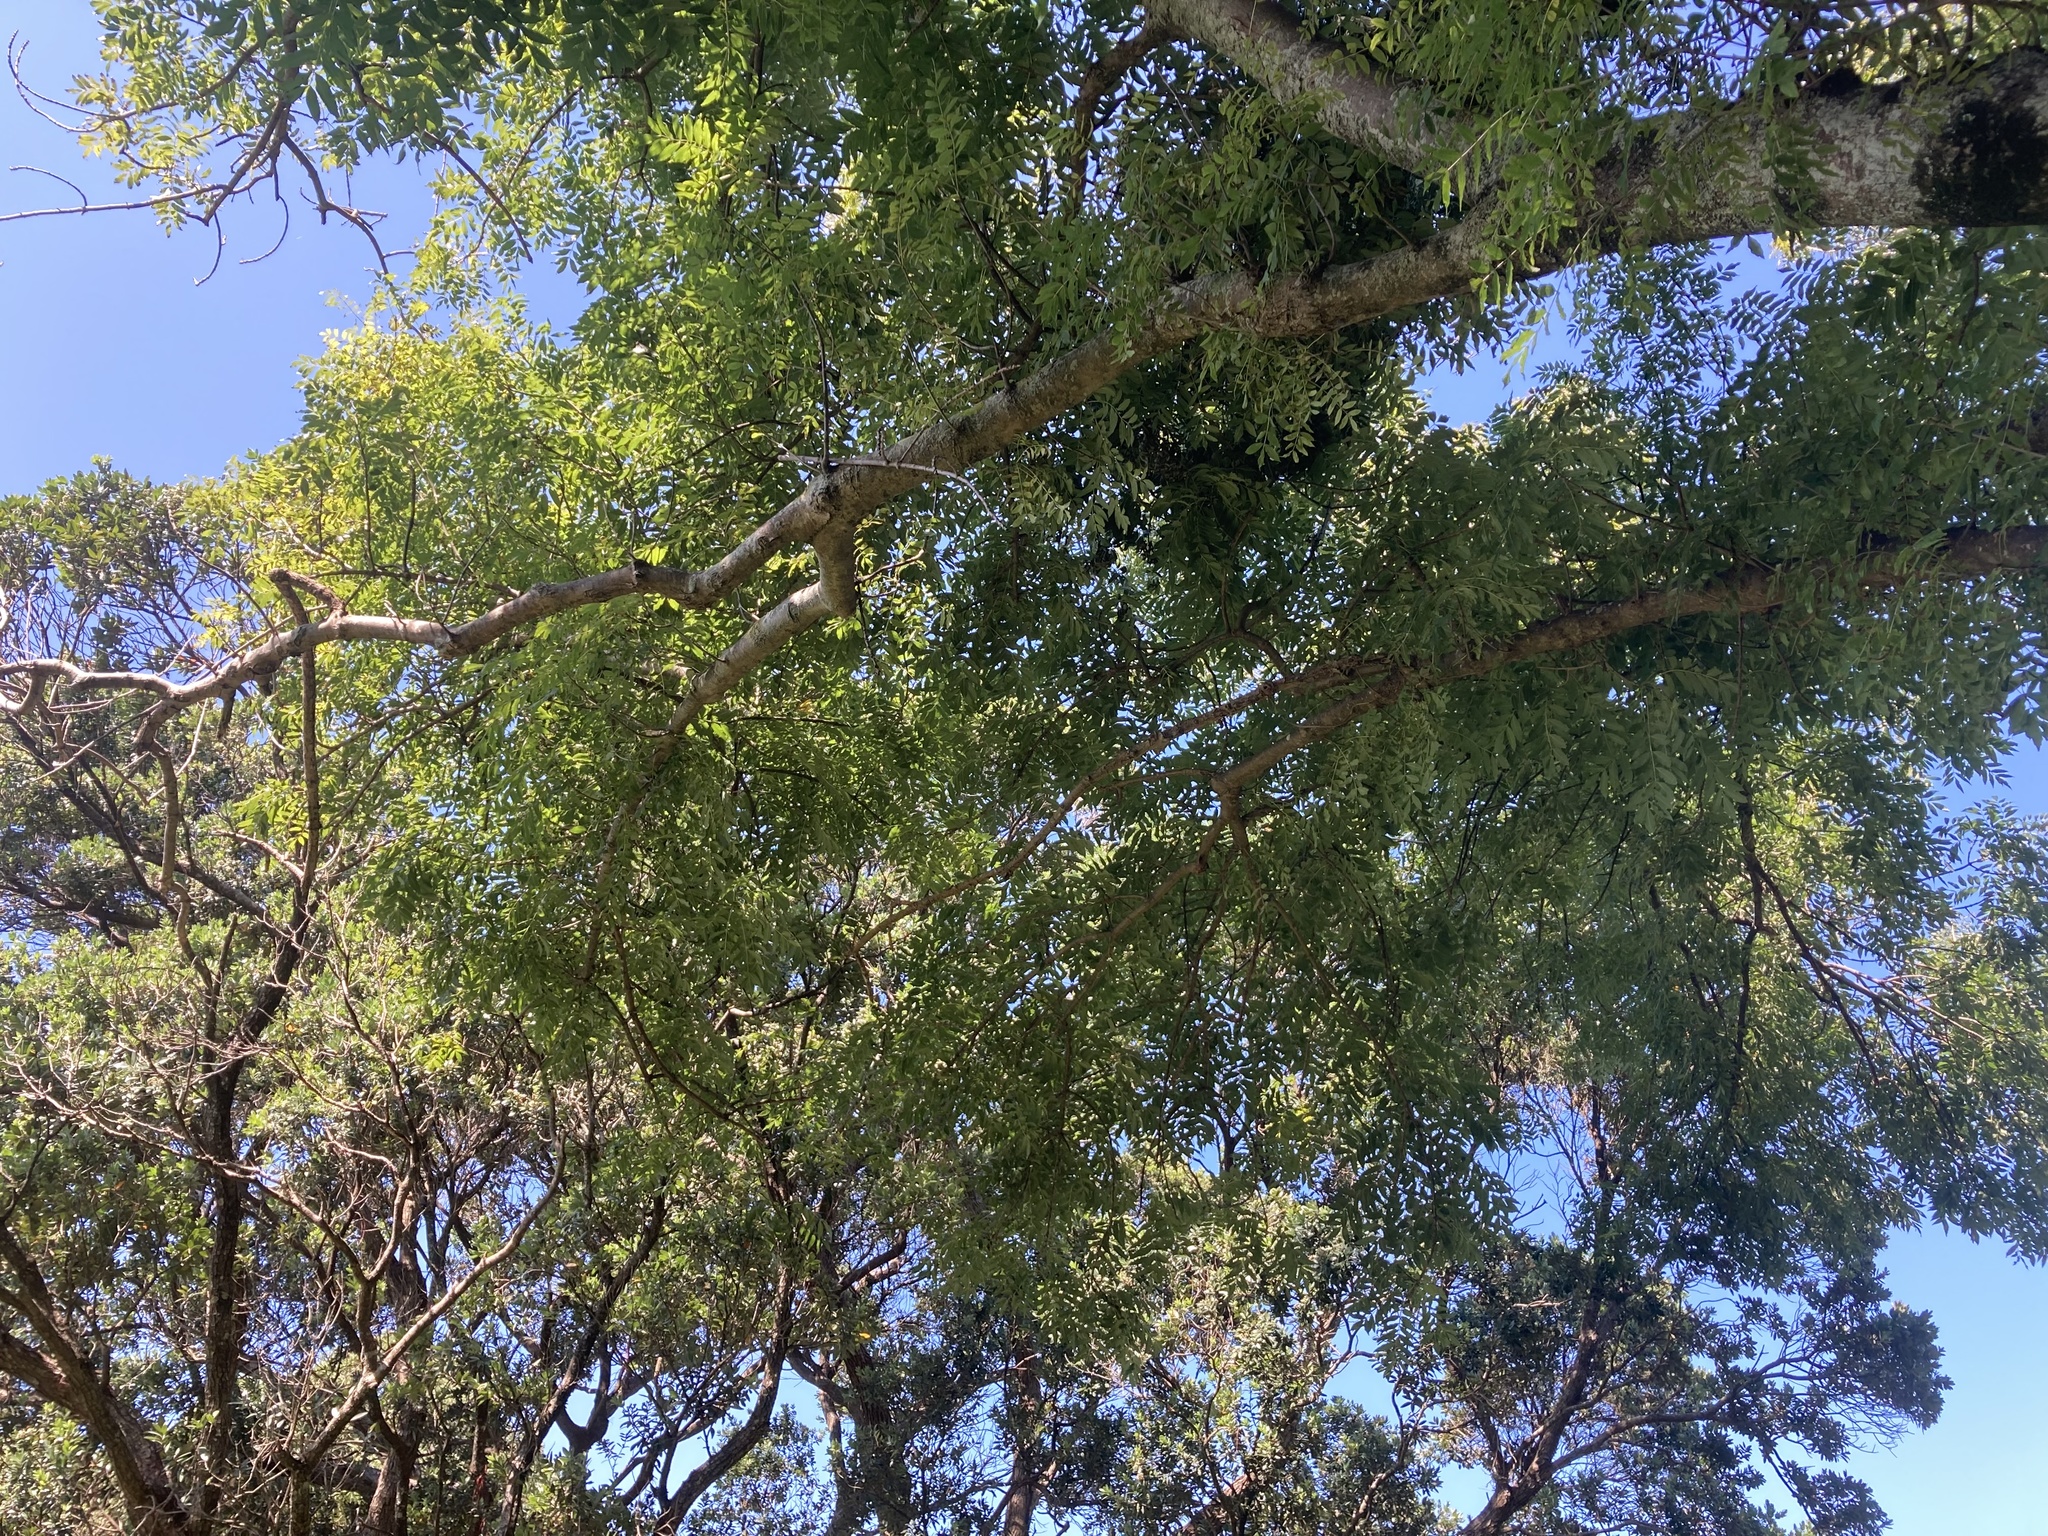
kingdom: Plantae
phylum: Tracheophyta
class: Magnoliopsida
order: Lamiales
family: Oleaceae
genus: Fraxinus
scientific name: Fraxinus excelsior
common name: European ash
